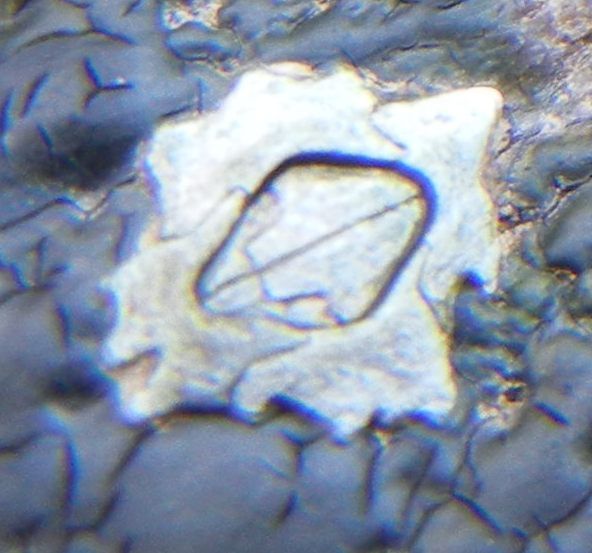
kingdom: Animalia
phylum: Arthropoda
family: Elminiidae
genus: Austrominius
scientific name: Austrominius modestus
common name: Australasian barnacle
